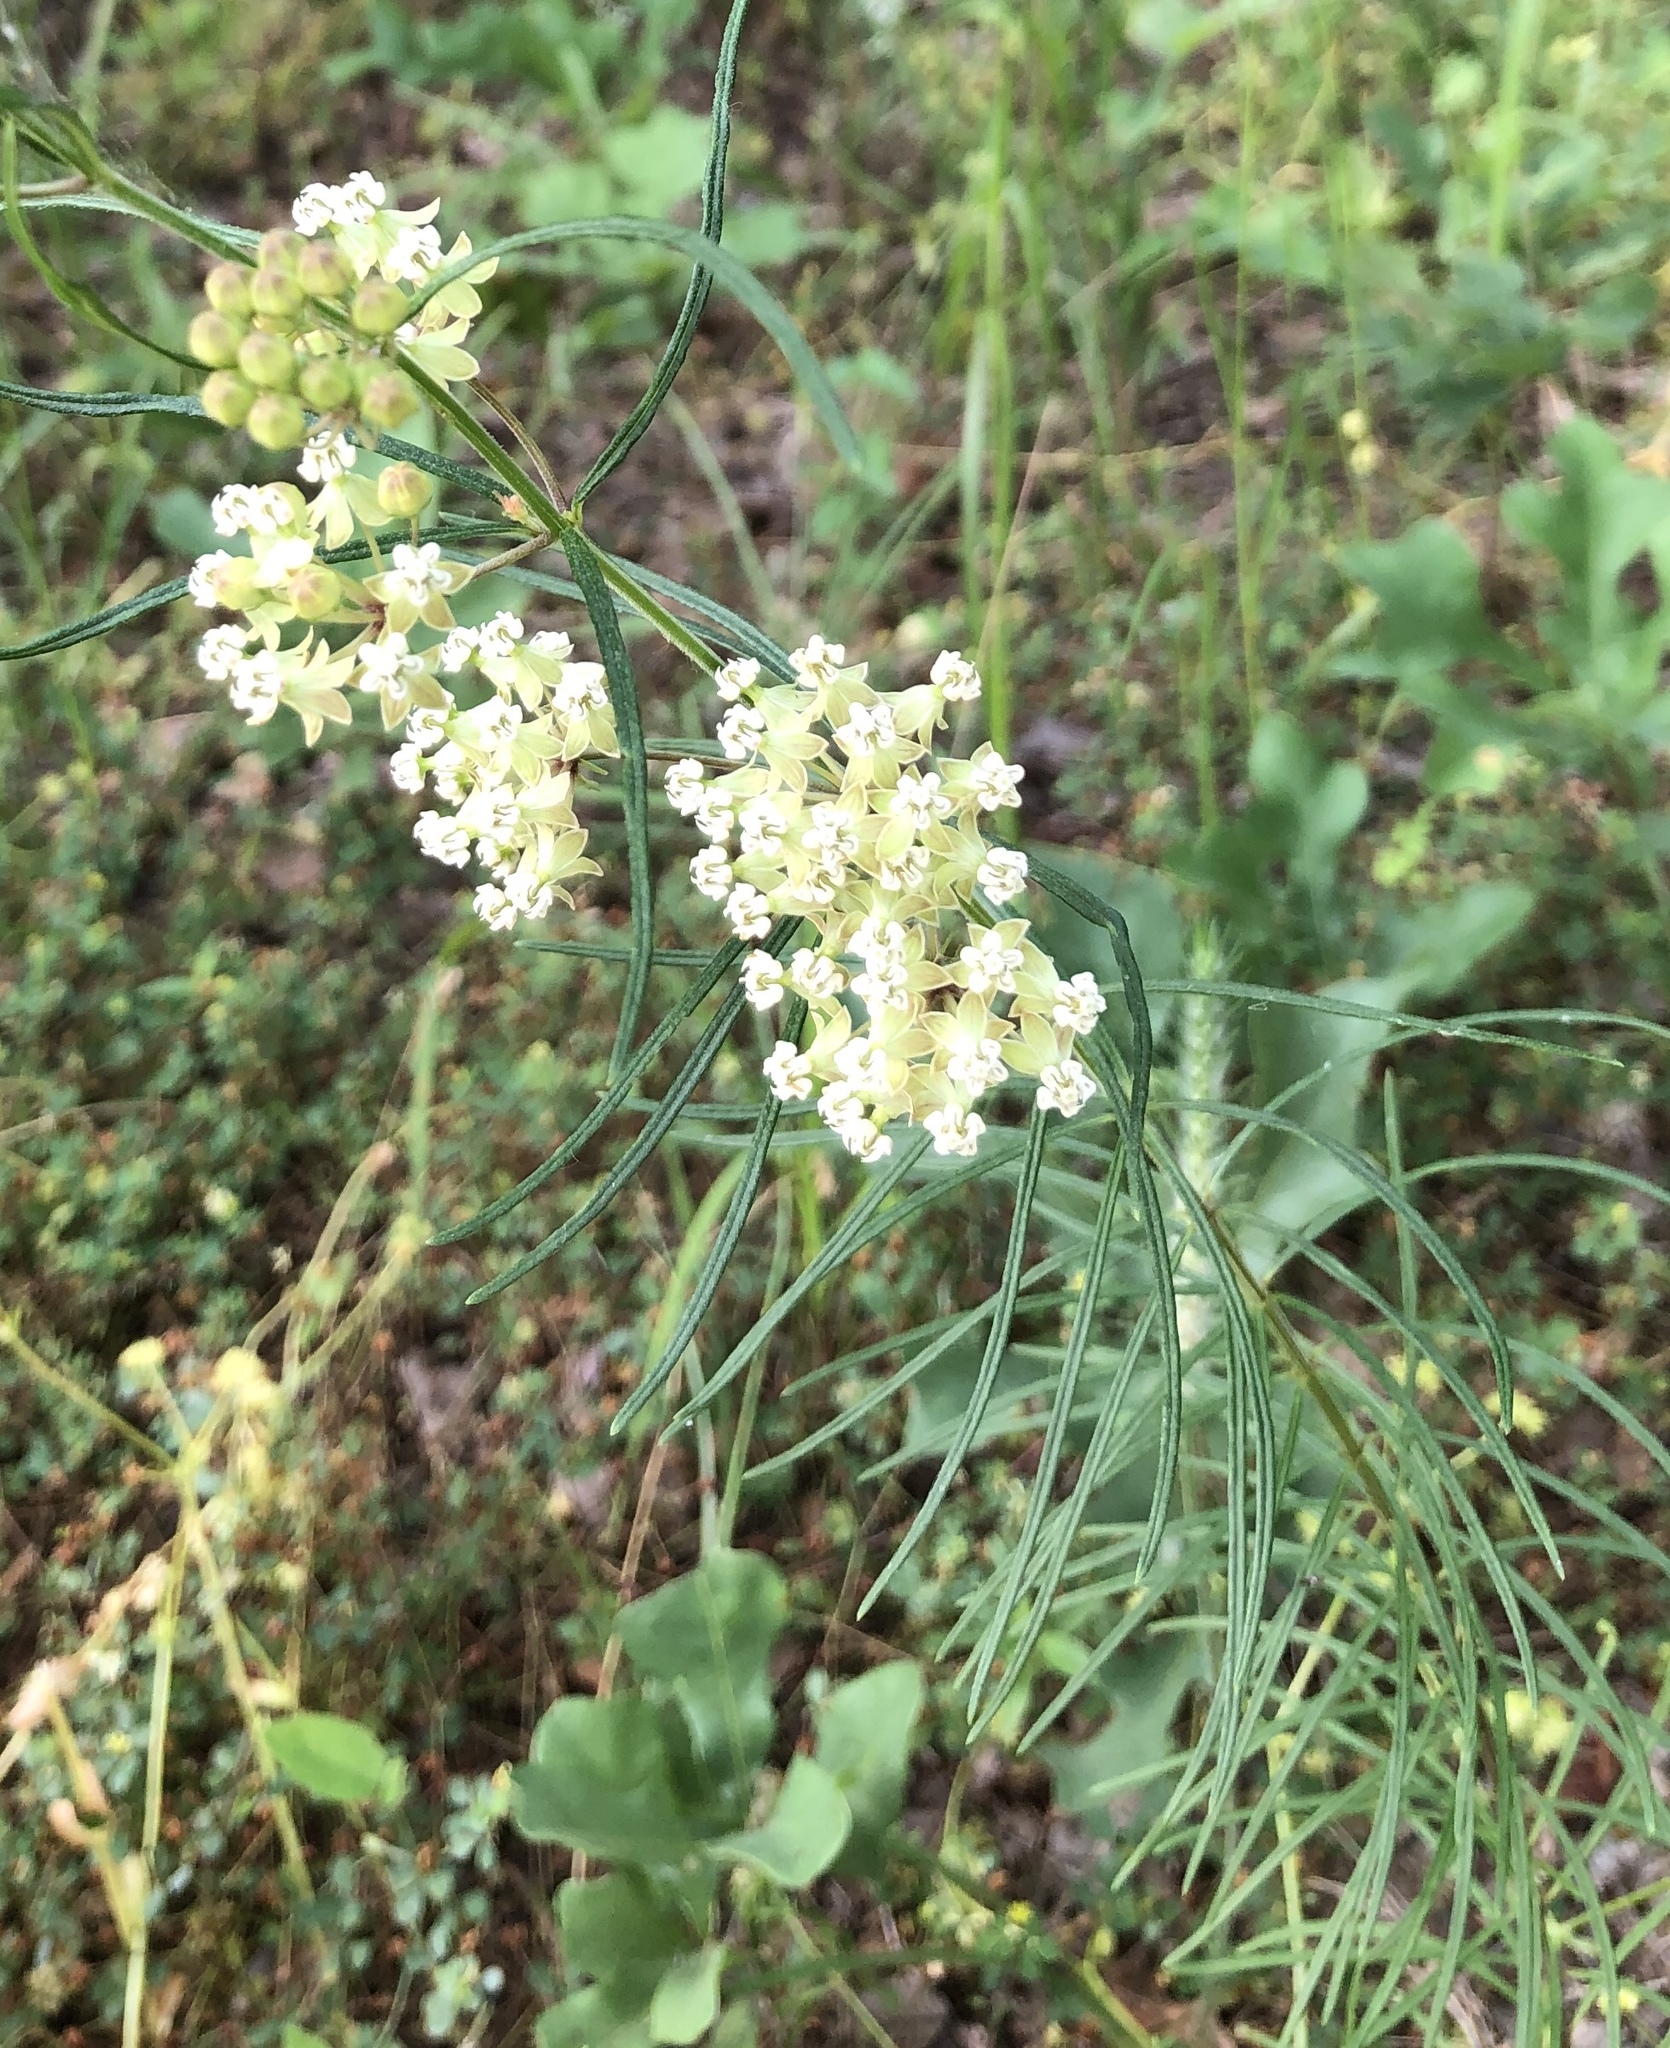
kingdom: Plantae
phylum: Tracheophyta
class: Magnoliopsida
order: Gentianales
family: Apocynaceae
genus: Asclepias
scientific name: Asclepias verticillata
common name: Eastern whorled milkweed
